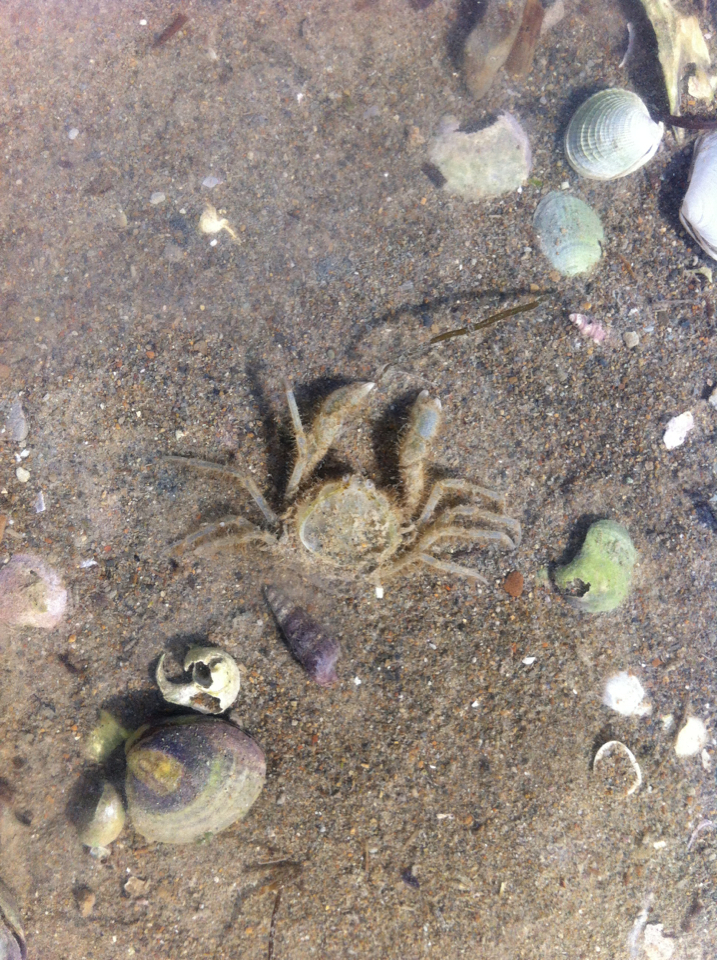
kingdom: Animalia
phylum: Arthropoda
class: Malacostraca
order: Decapoda
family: Hymenosomatidae
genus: Halicarcinus
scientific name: Halicarcinus whitei
